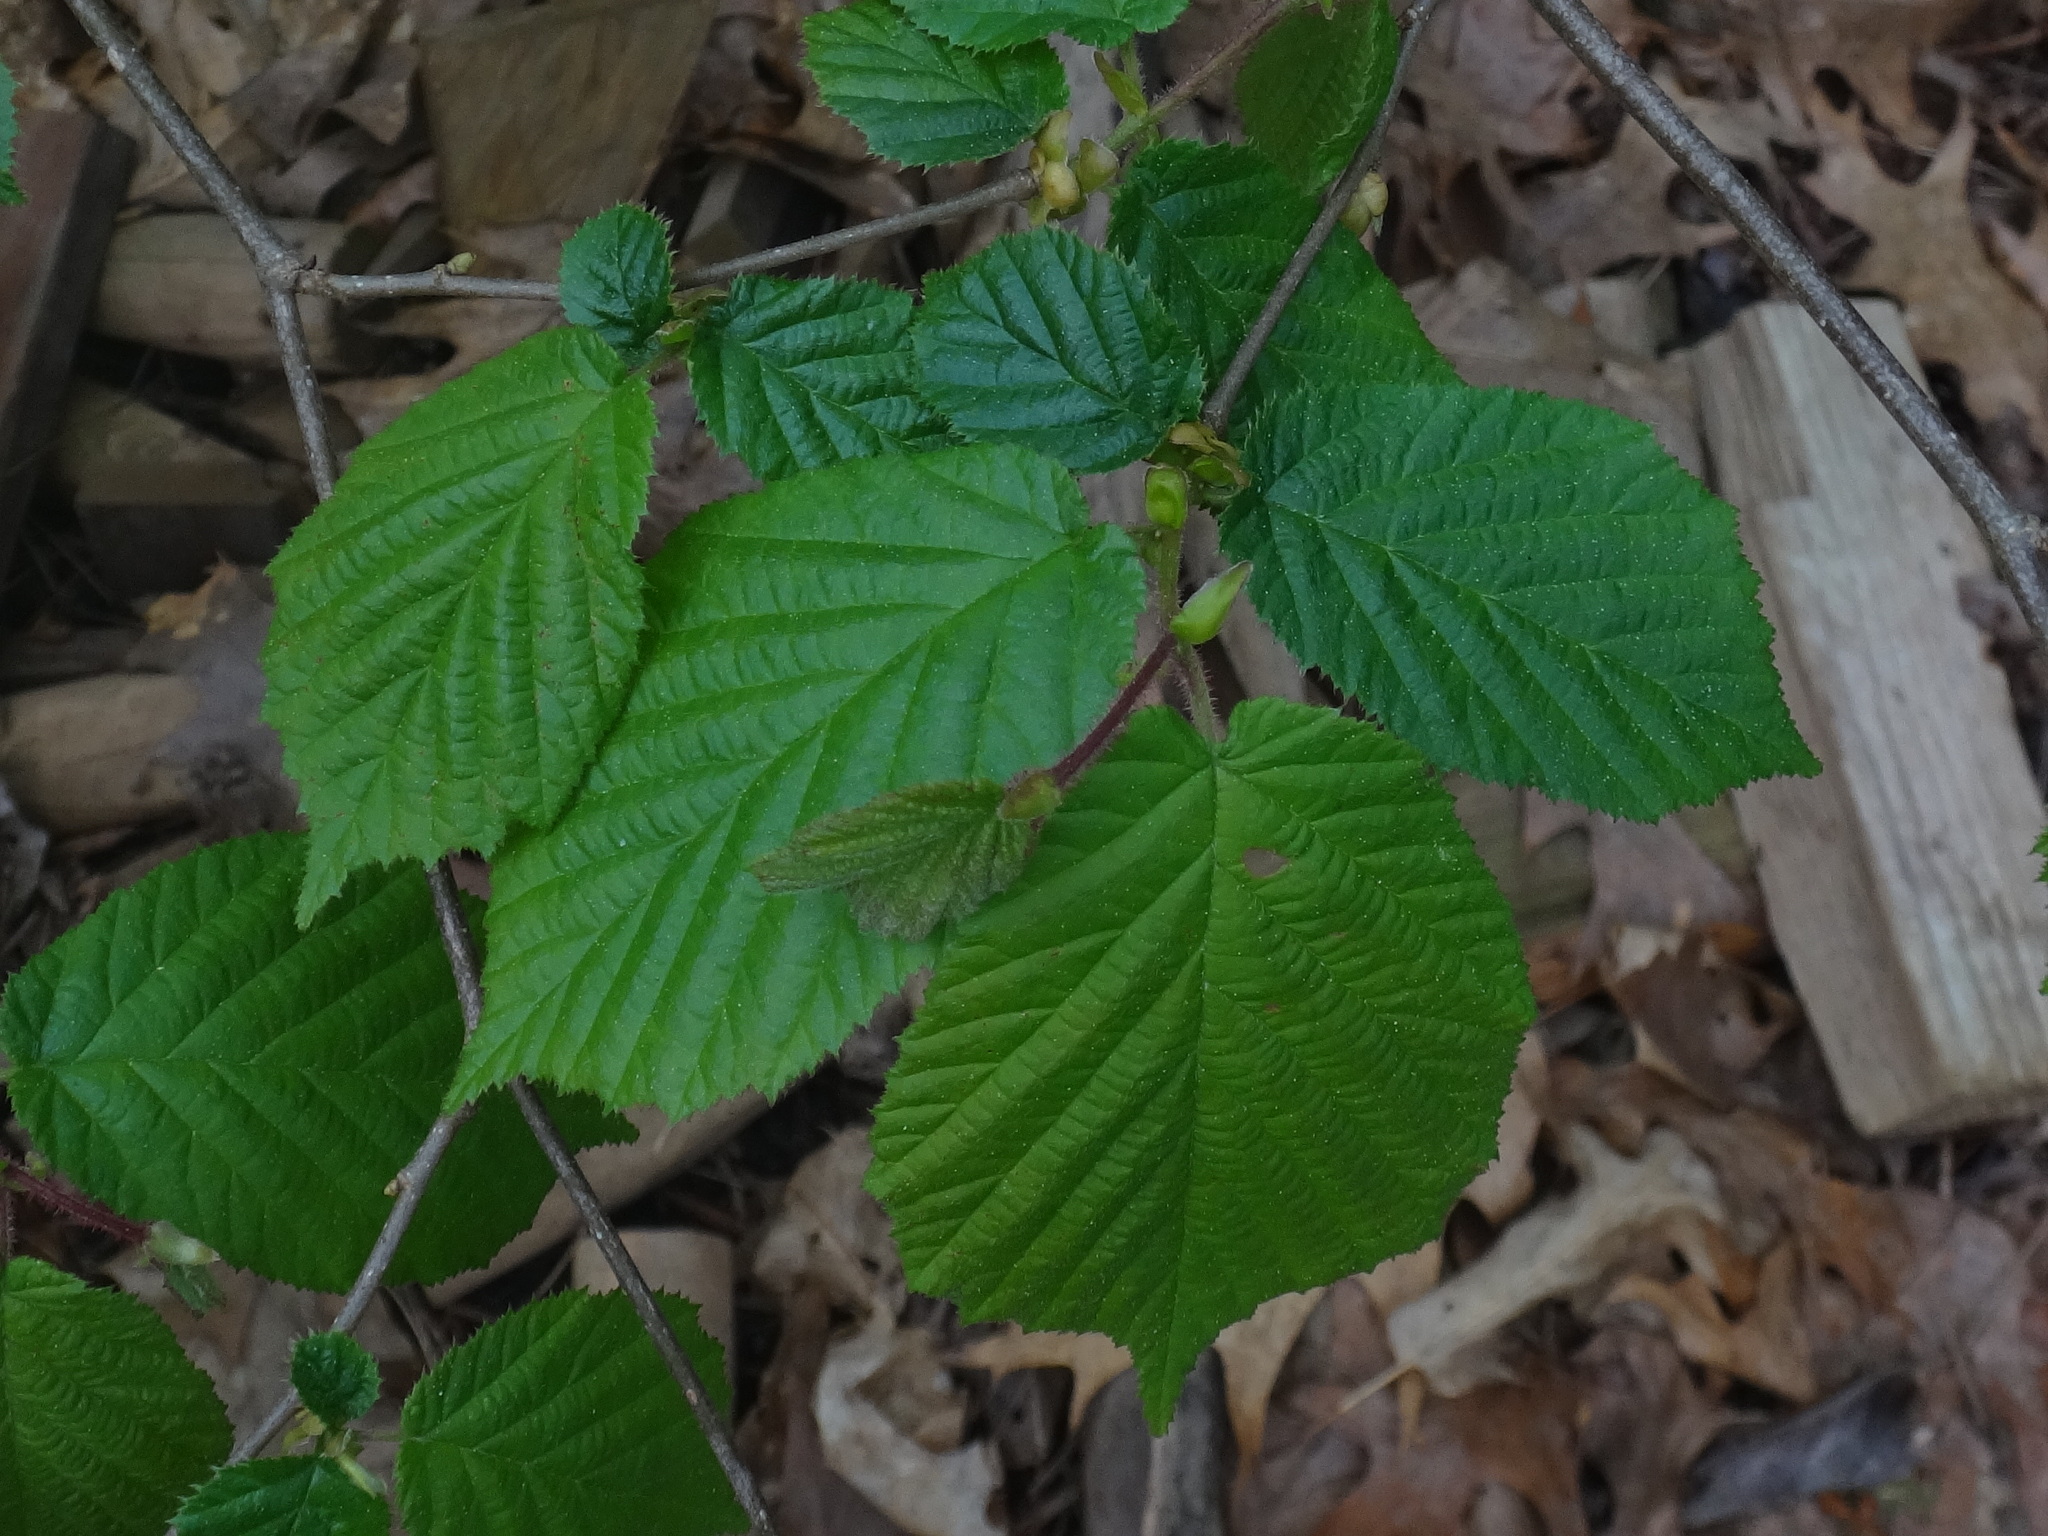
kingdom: Plantae
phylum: Tracheophyta
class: Magnoliopsida
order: Fagales
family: Betulaceae
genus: Corylus
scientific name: Corylus avellana
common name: European hazel
